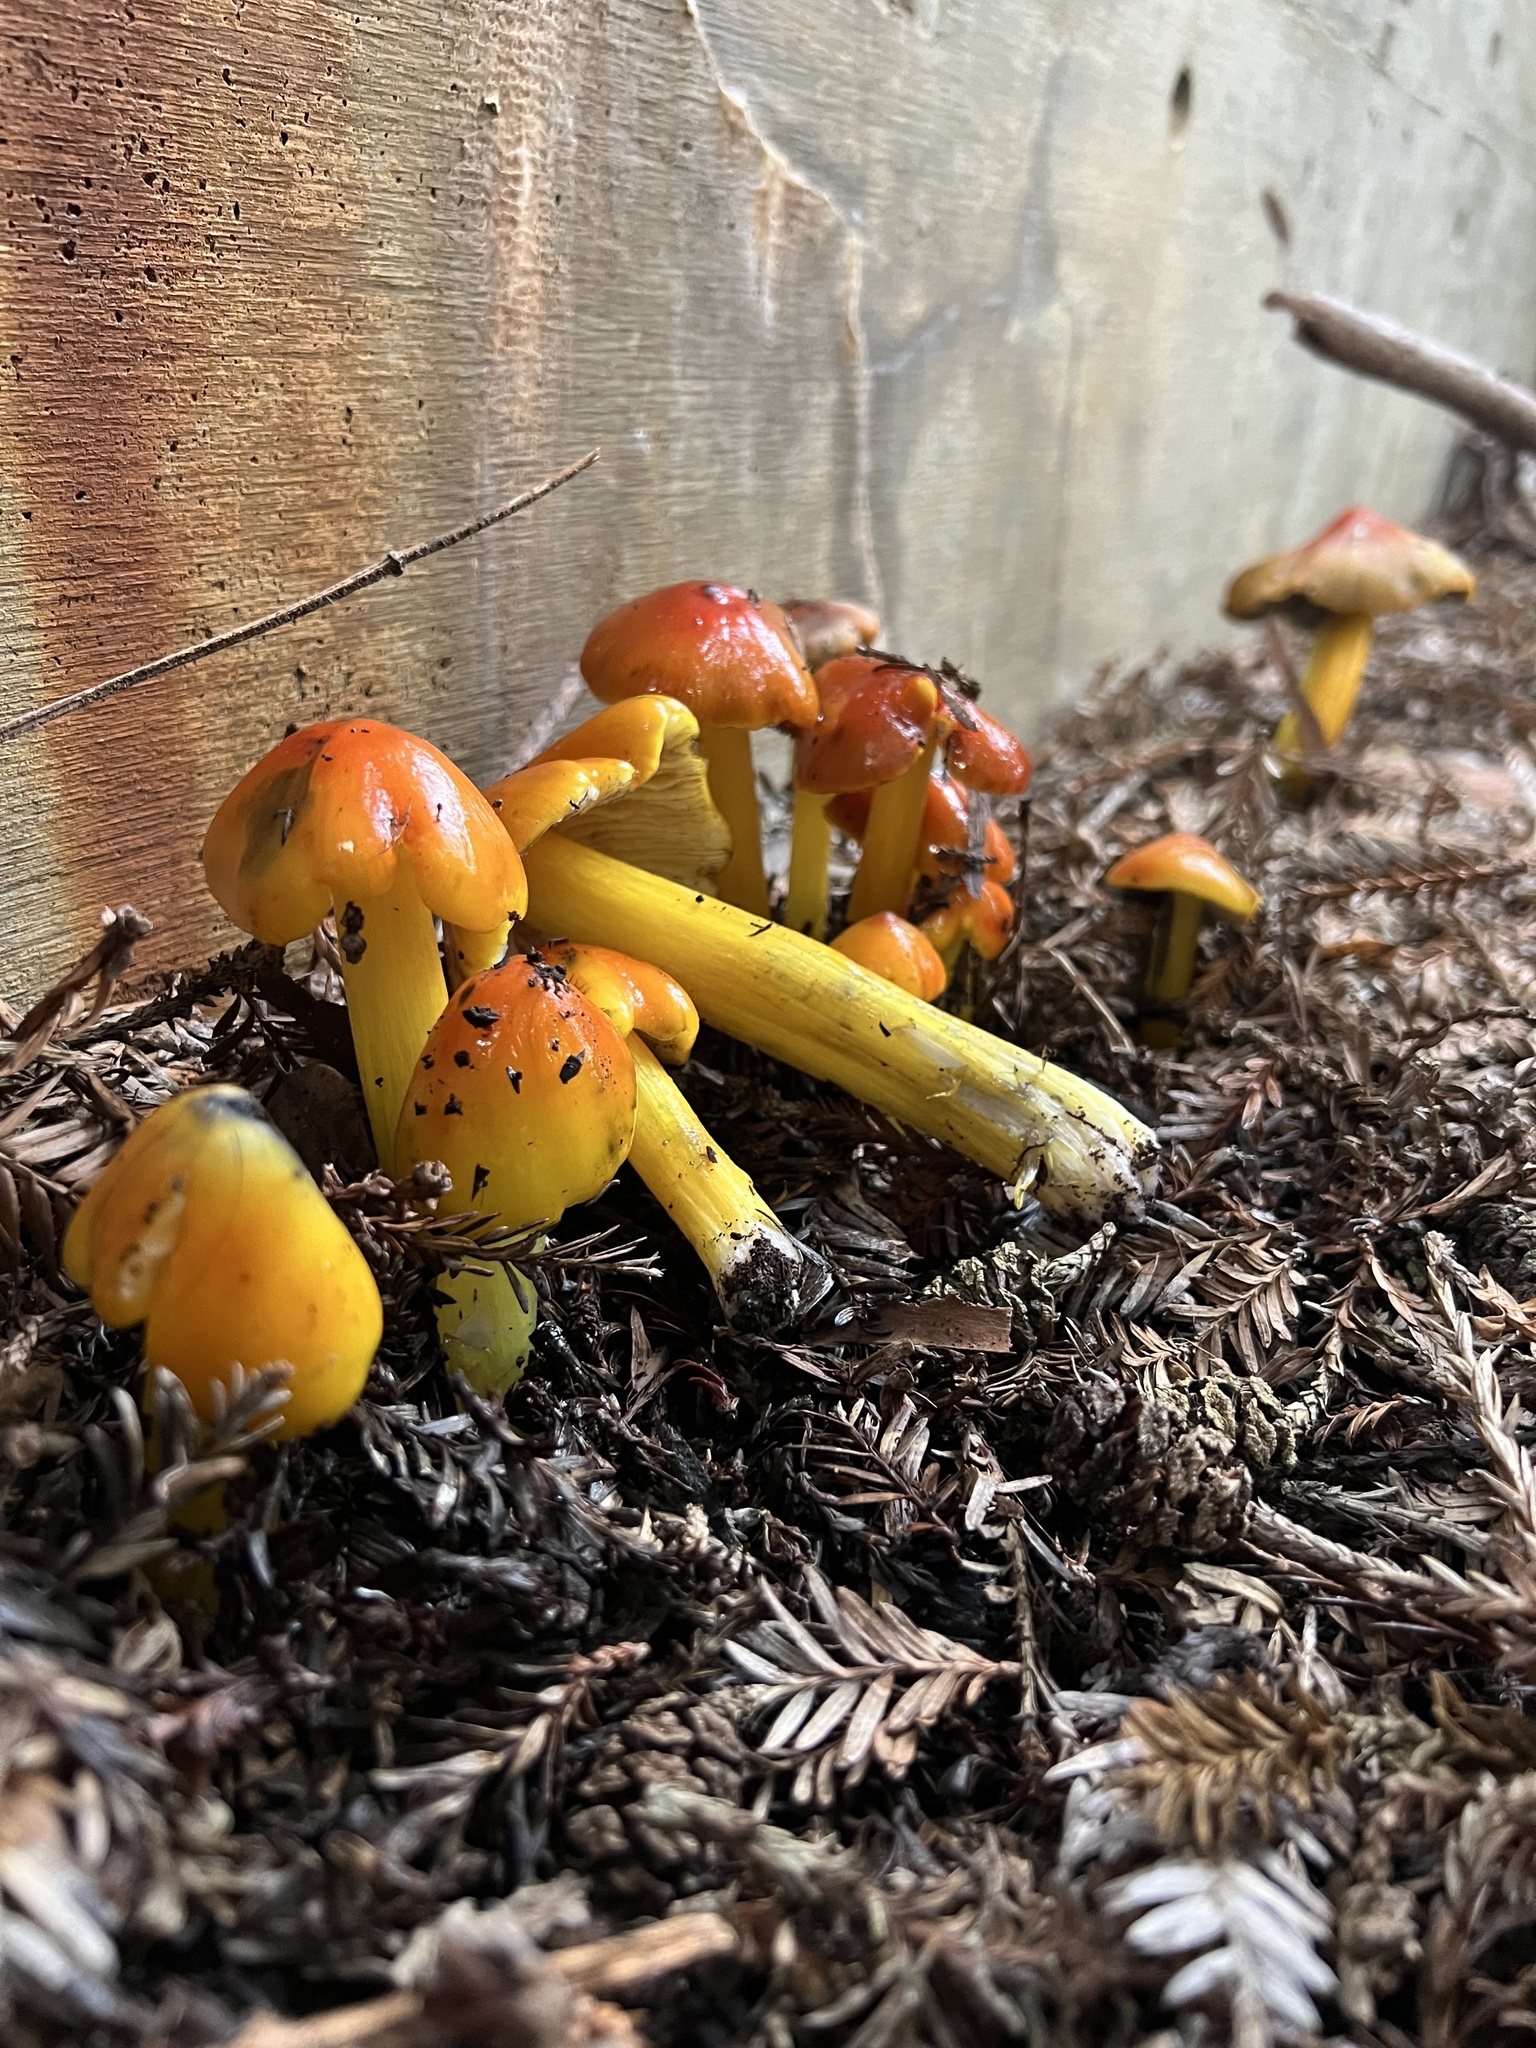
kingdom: Fungi
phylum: Basidiomycota
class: Agaricomycetes
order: Agaricales
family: Hygrophoraceae
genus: Hygrocybe
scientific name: Hygrocybe singeri
